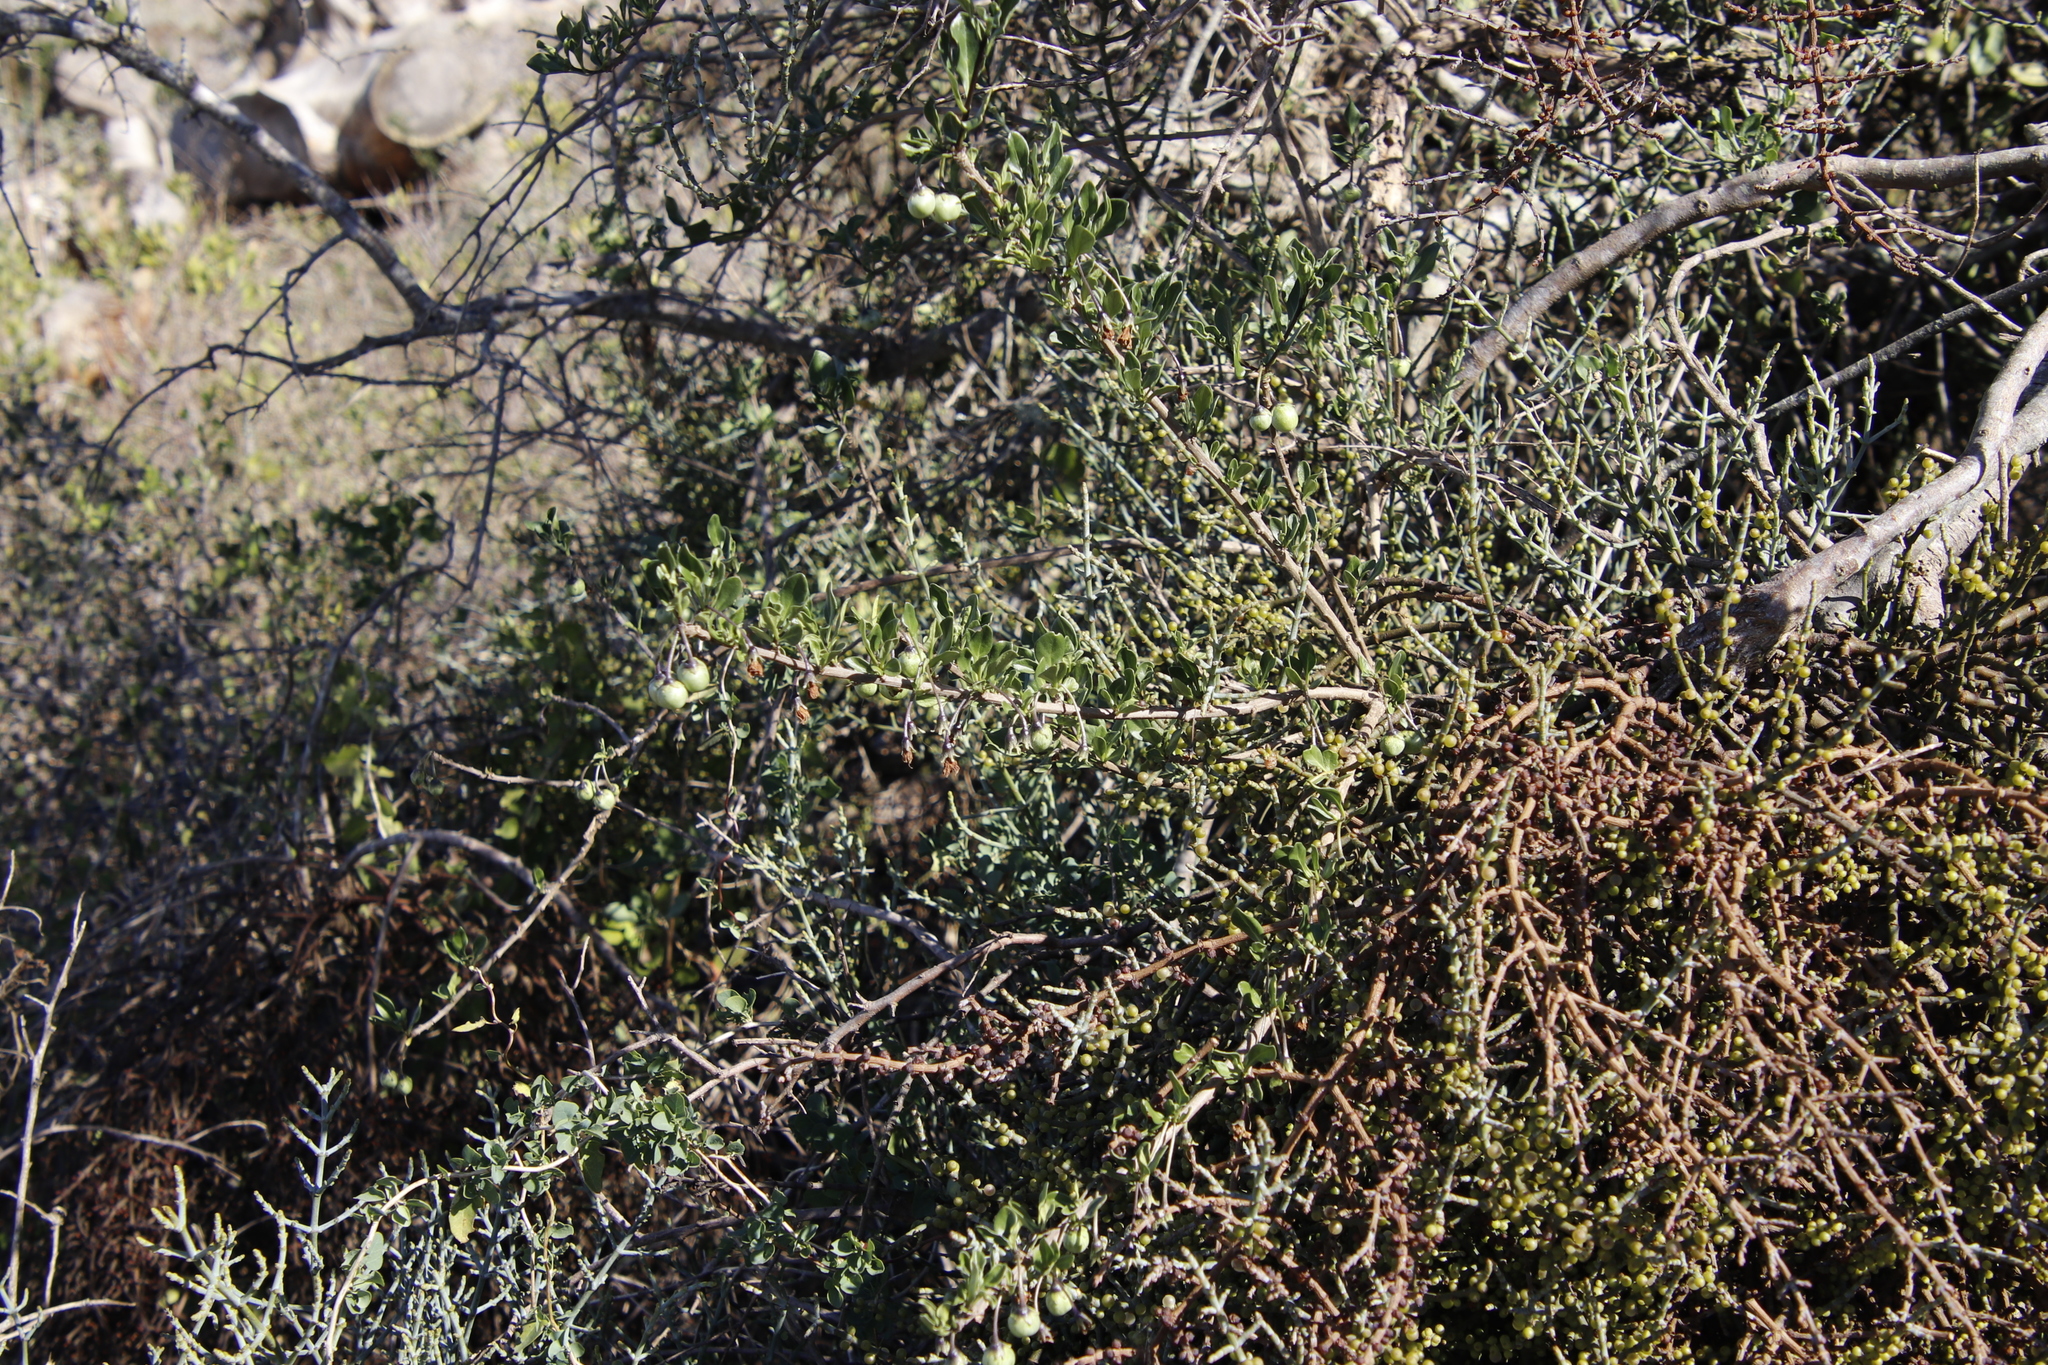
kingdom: Plantae
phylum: Tracheophyta
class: Magnoliopsida
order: Solanales
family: Solanaceae
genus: Solanum
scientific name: Solanum guineense
